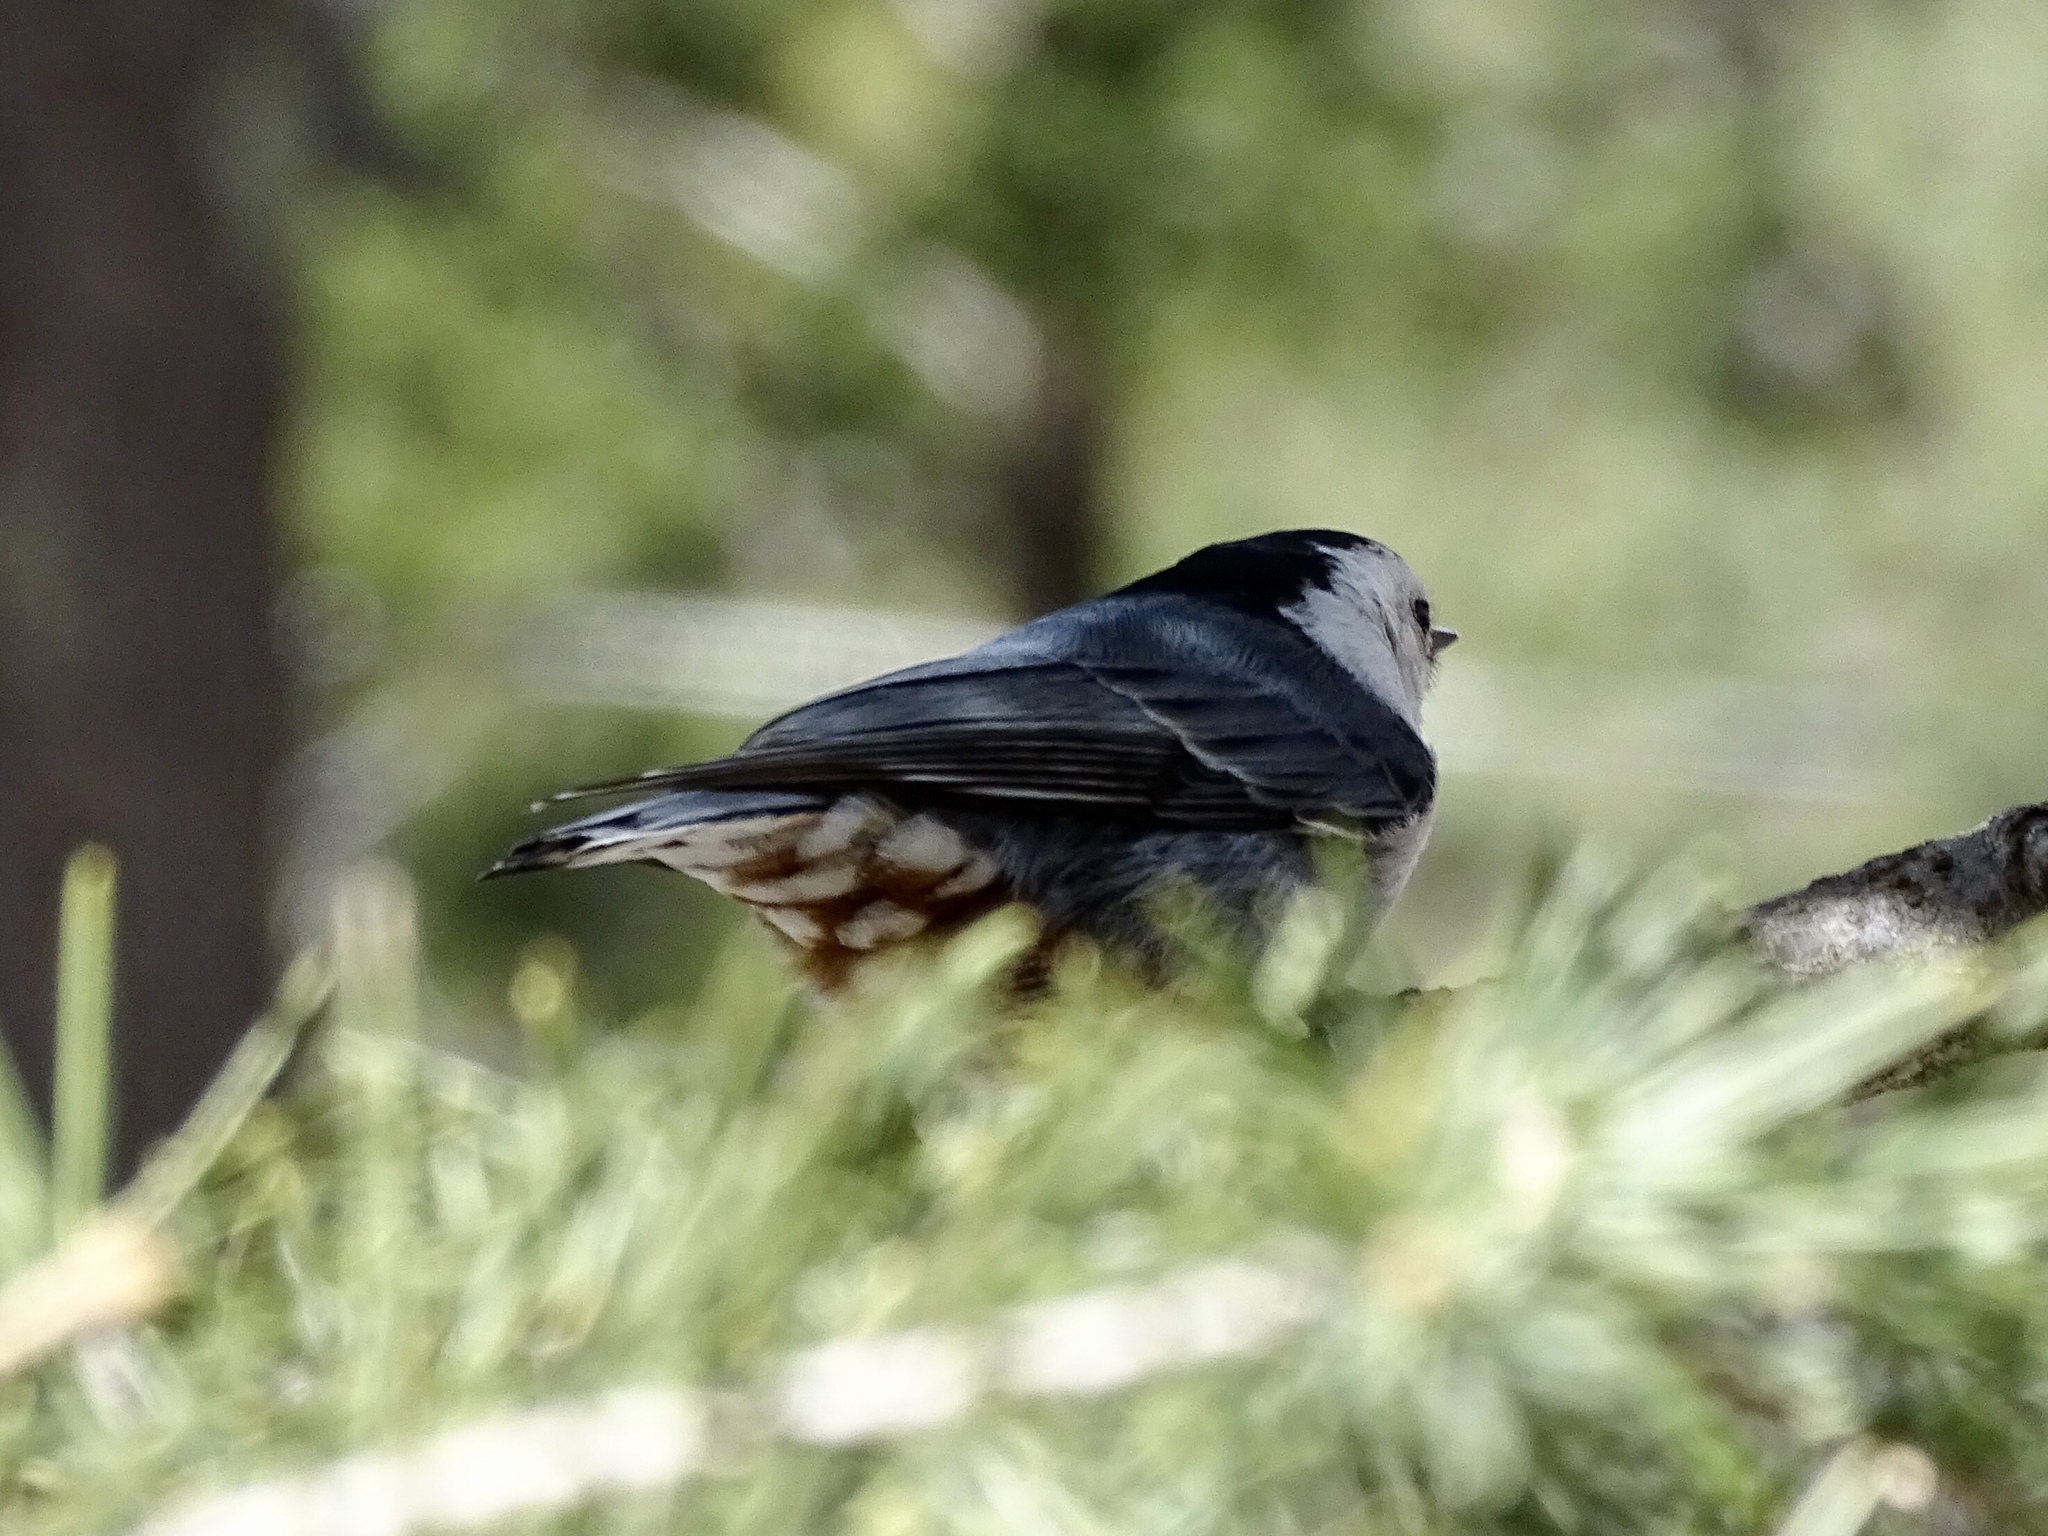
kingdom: Animalia
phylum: Chordata
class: Aves
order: Passeriformes
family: Sittidae
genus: Sitta
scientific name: Sitta carolinensis
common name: White-breasted nuthatch
